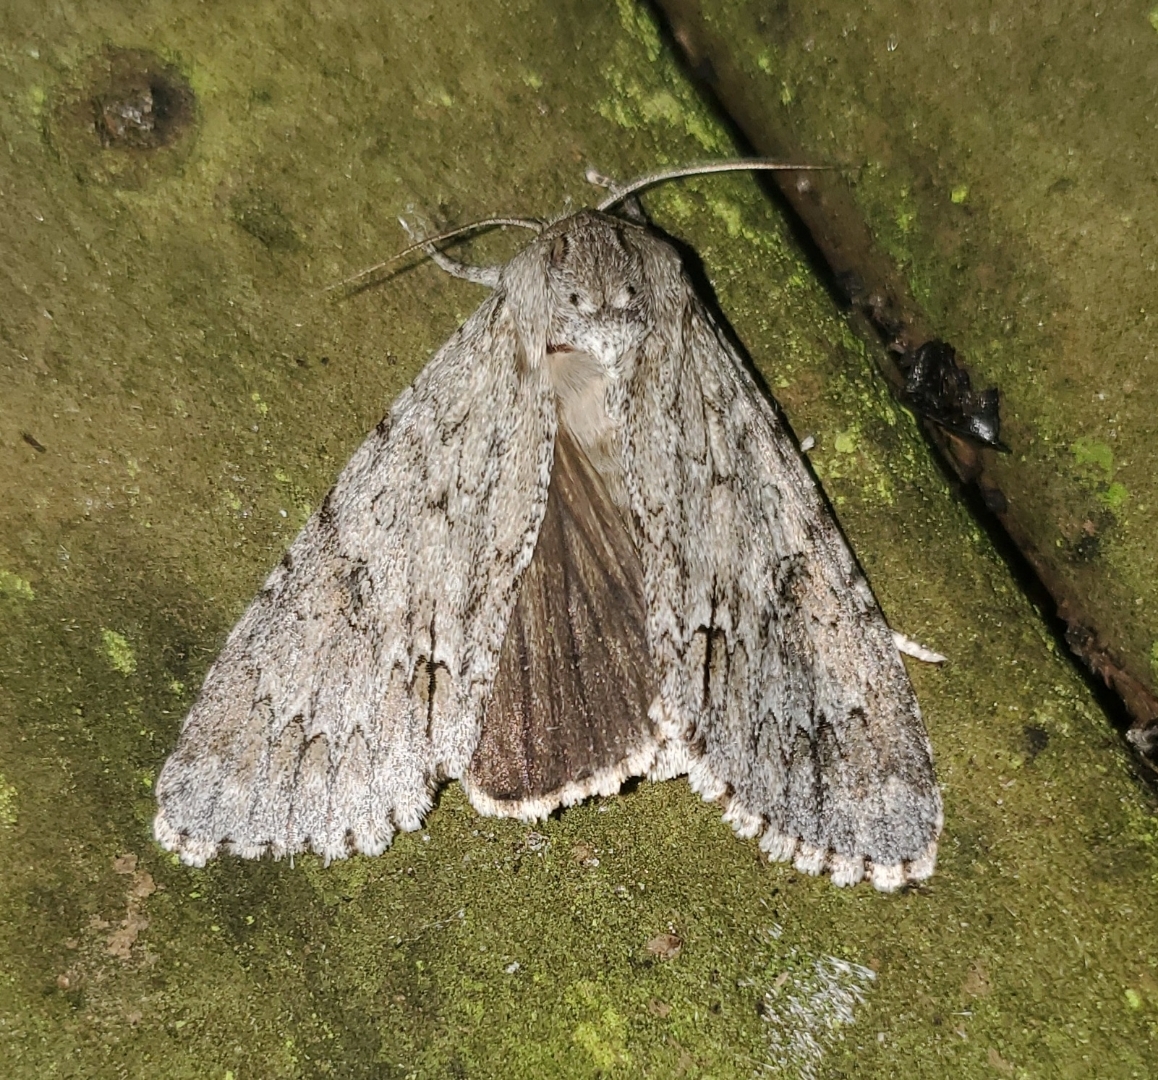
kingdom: Animalia
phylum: Arthropoda
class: Insecta
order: Lepidoptera
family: Noctuidae
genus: Acronicta
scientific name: Acronicta americana
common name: American dagger
